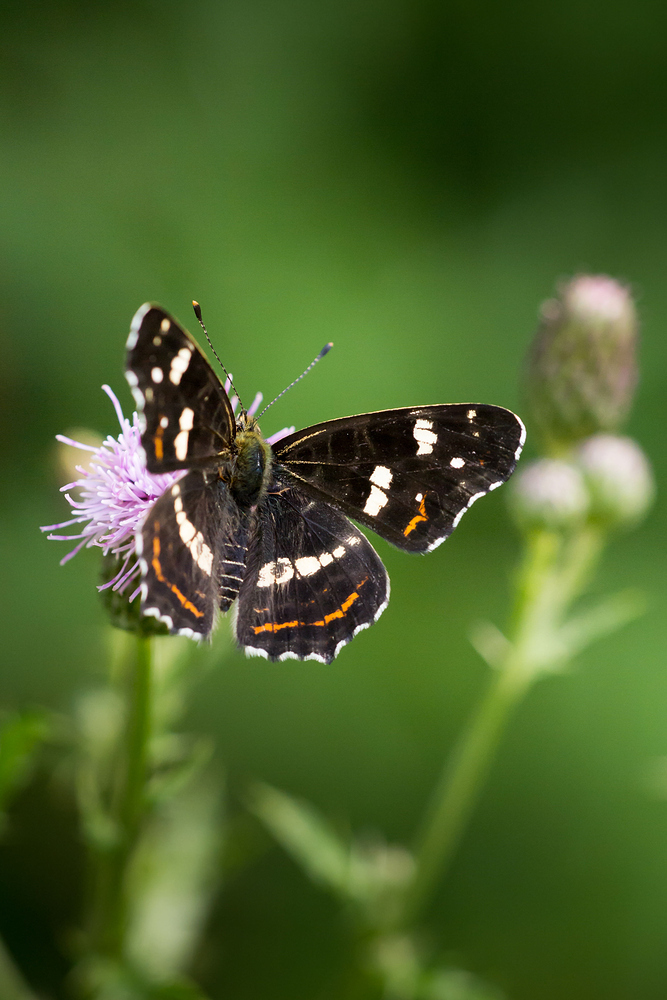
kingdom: Animalia
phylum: Arthropoda
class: Insecta
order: Lepidoptera
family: Nymphalidae
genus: Araschnia
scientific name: Araschnia levana
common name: Map butterfly
